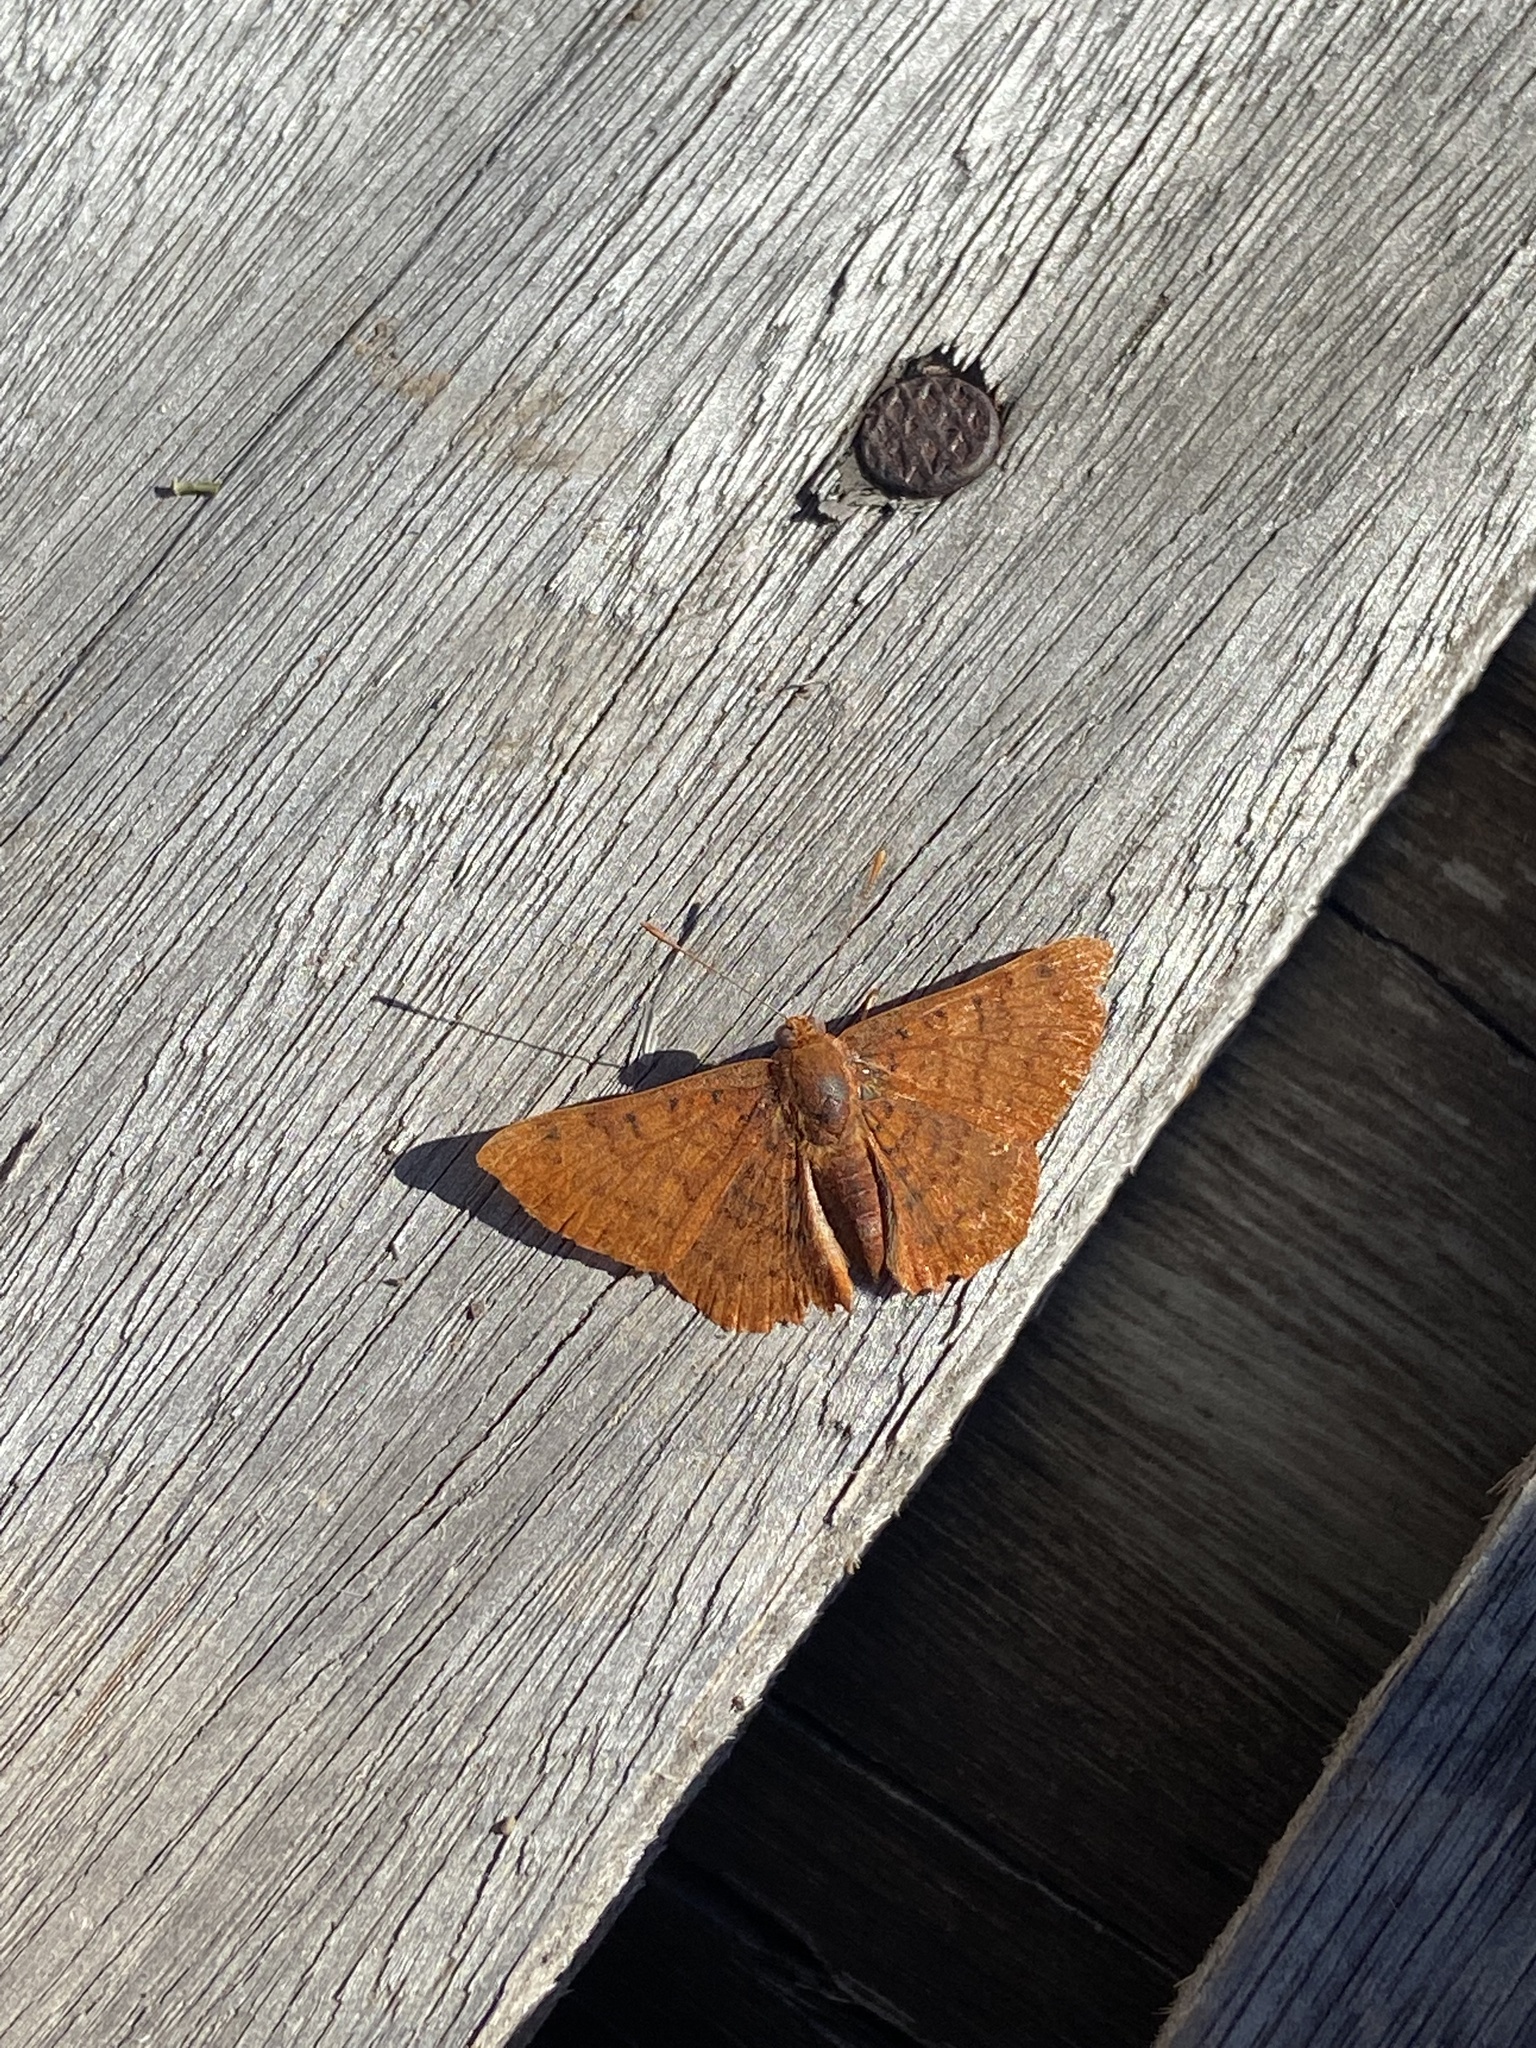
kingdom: Animalia
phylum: Arthropoda
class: Insecta
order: Lepidoptera
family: Lycaenidae
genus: Emesis
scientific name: Emesis russula
